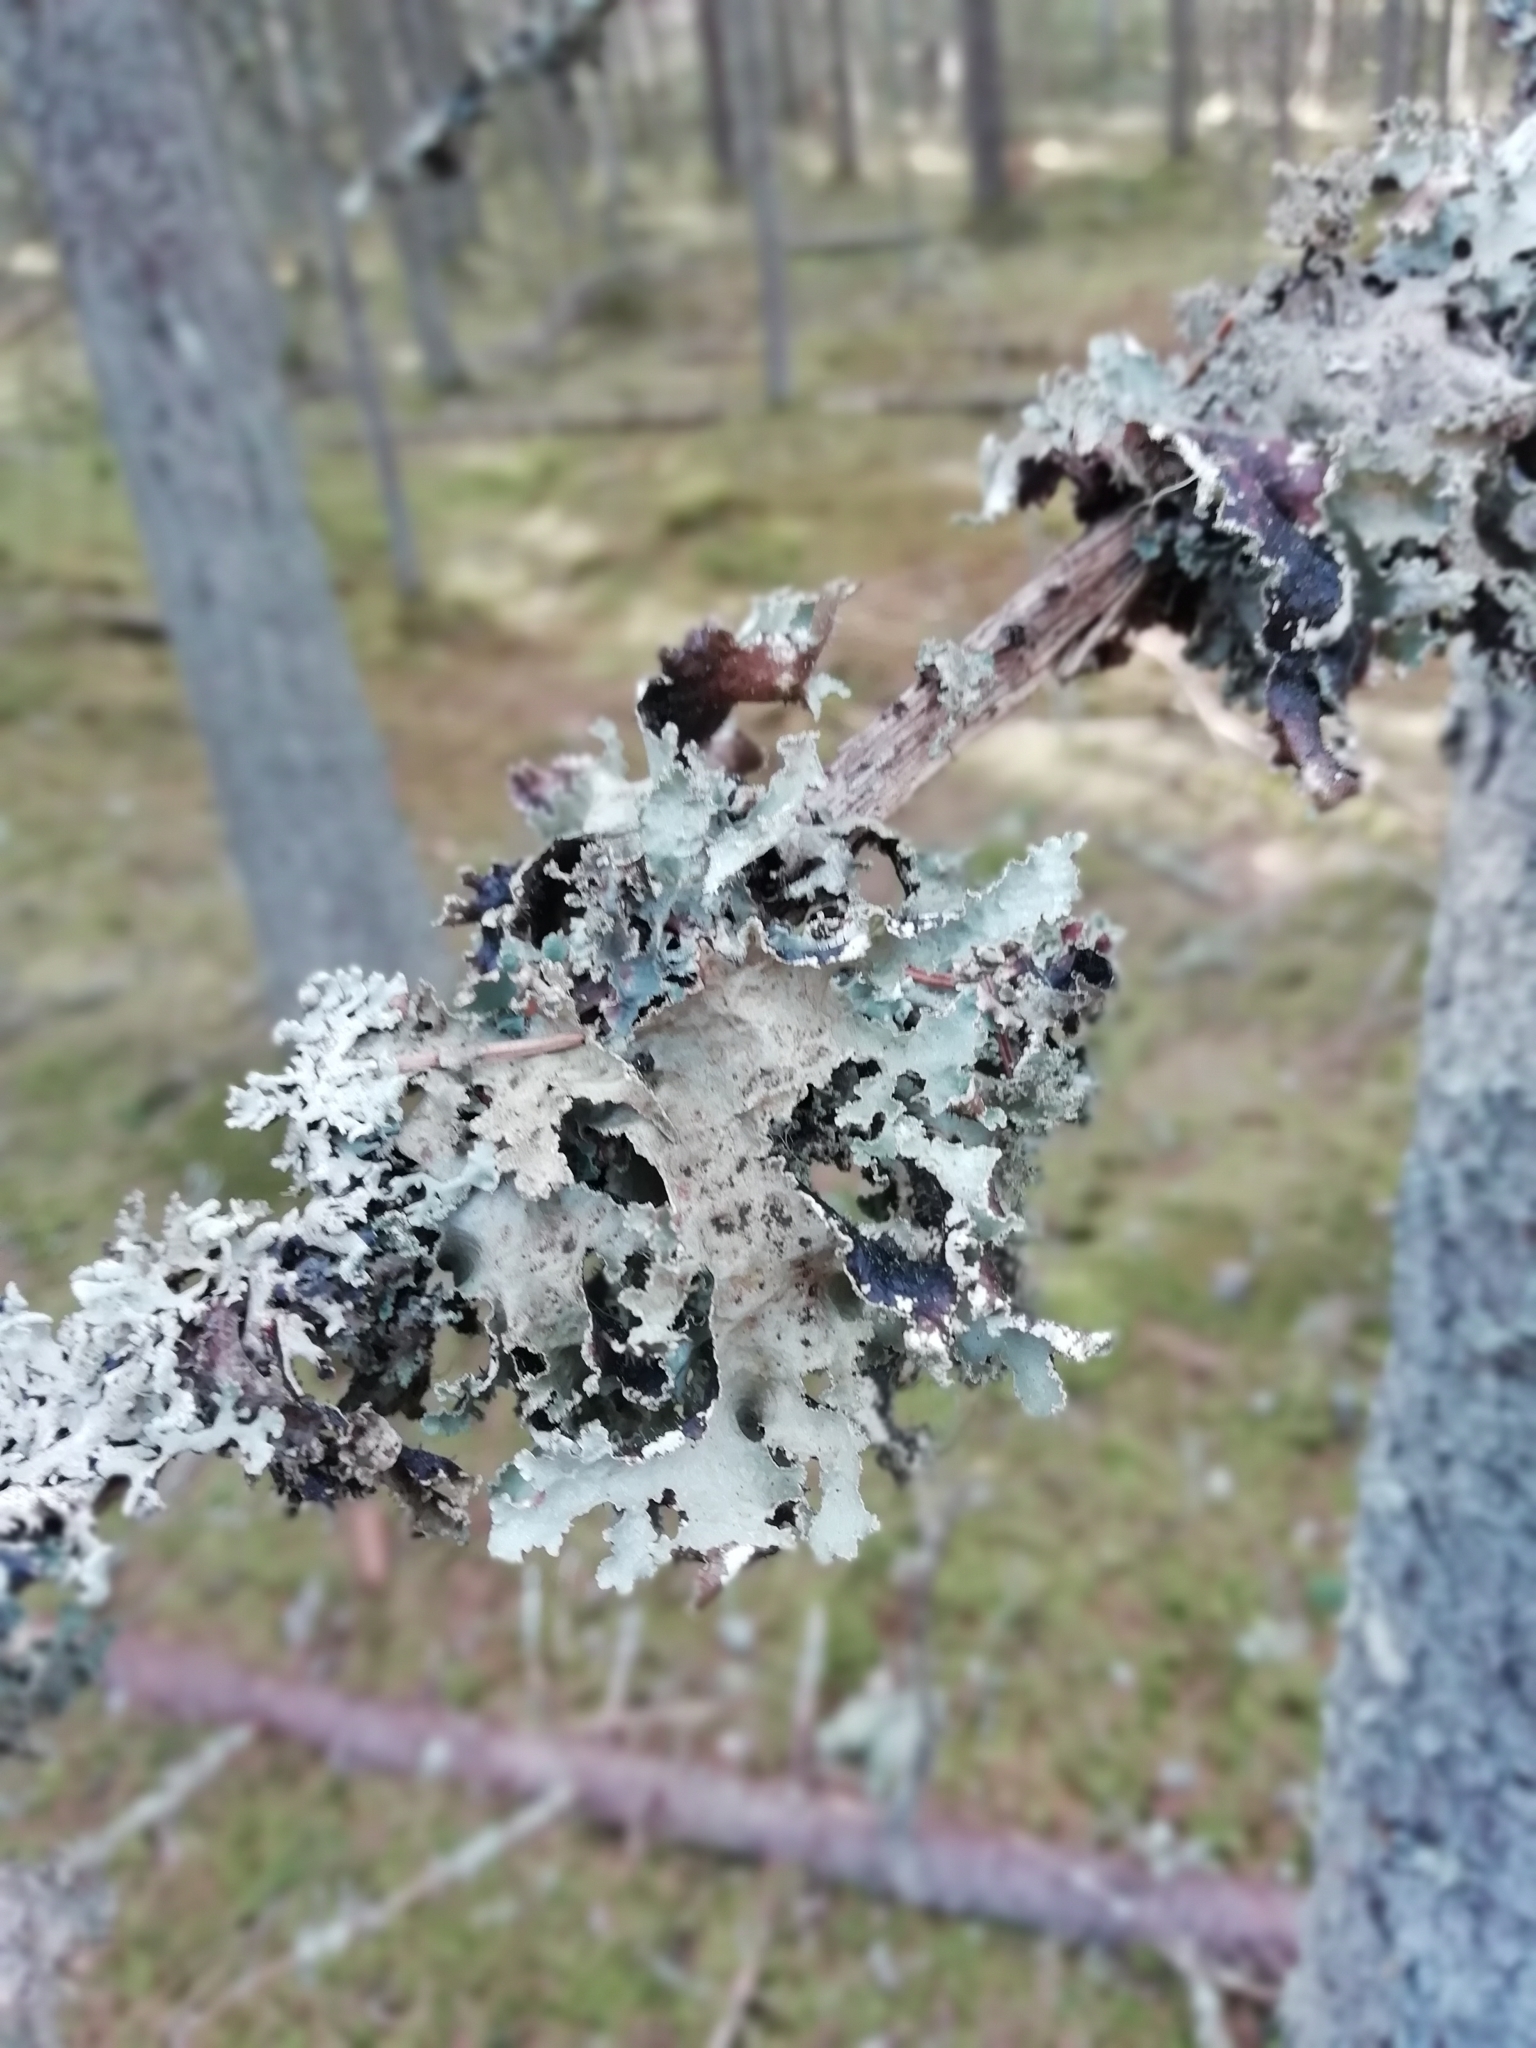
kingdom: Fungi
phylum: Ascomycota
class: Lecanoromycetes
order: Lecanorales
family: Parmeliaceae
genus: Platismatia
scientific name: Platismatia glauca
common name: Varied rag lichen
